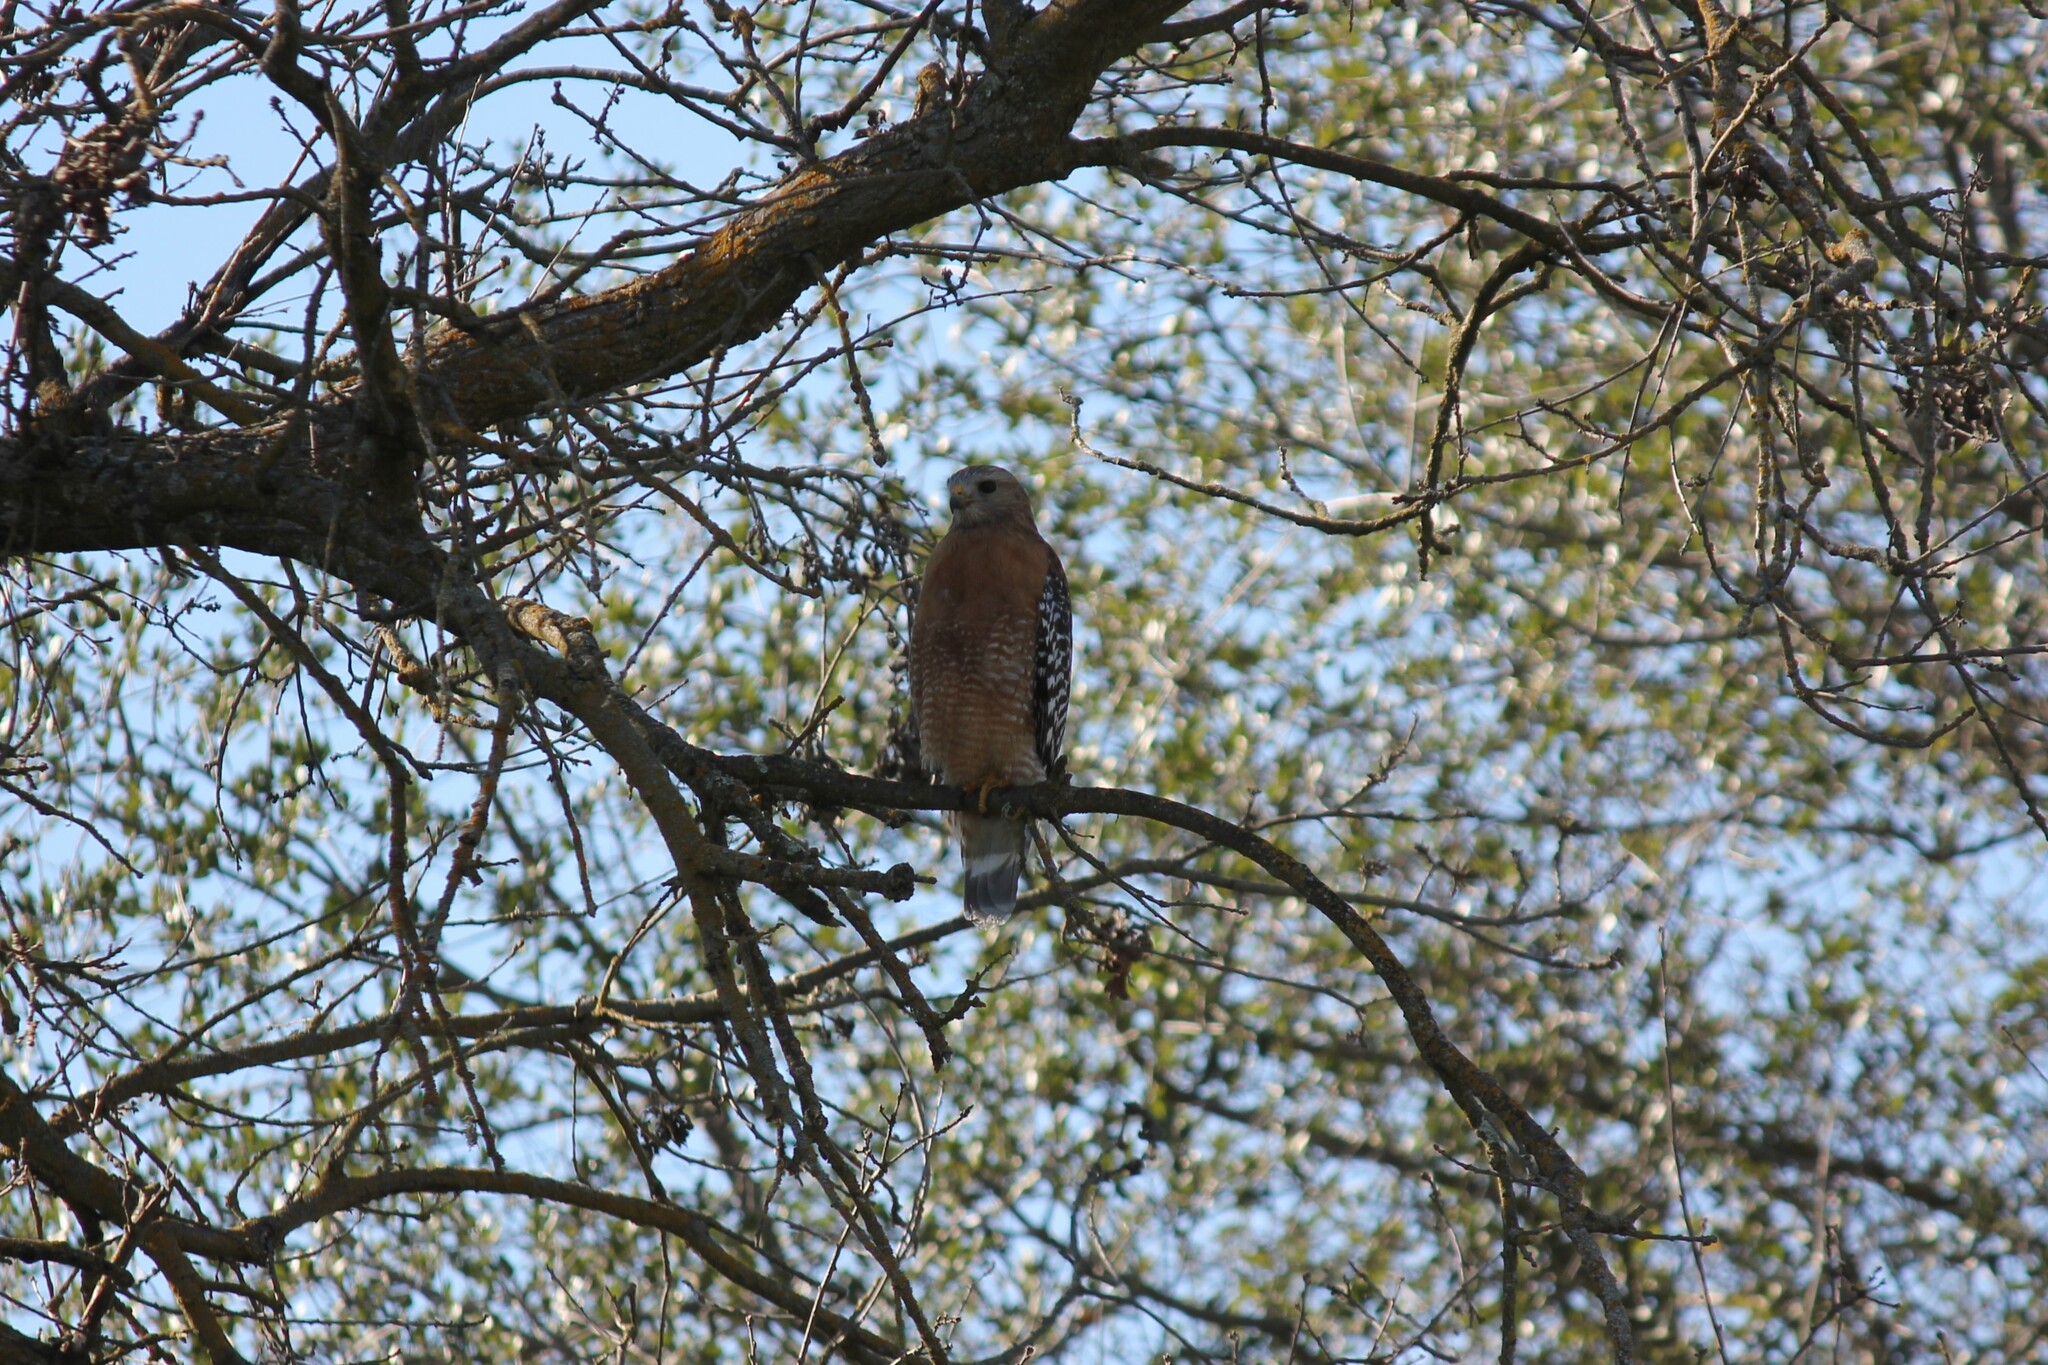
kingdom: Animalia
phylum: Chordata
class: Aves
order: Accipitriformes
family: Accipitridae
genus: Buteo
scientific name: Buteo lineatus
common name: Red-shouldered hawk
